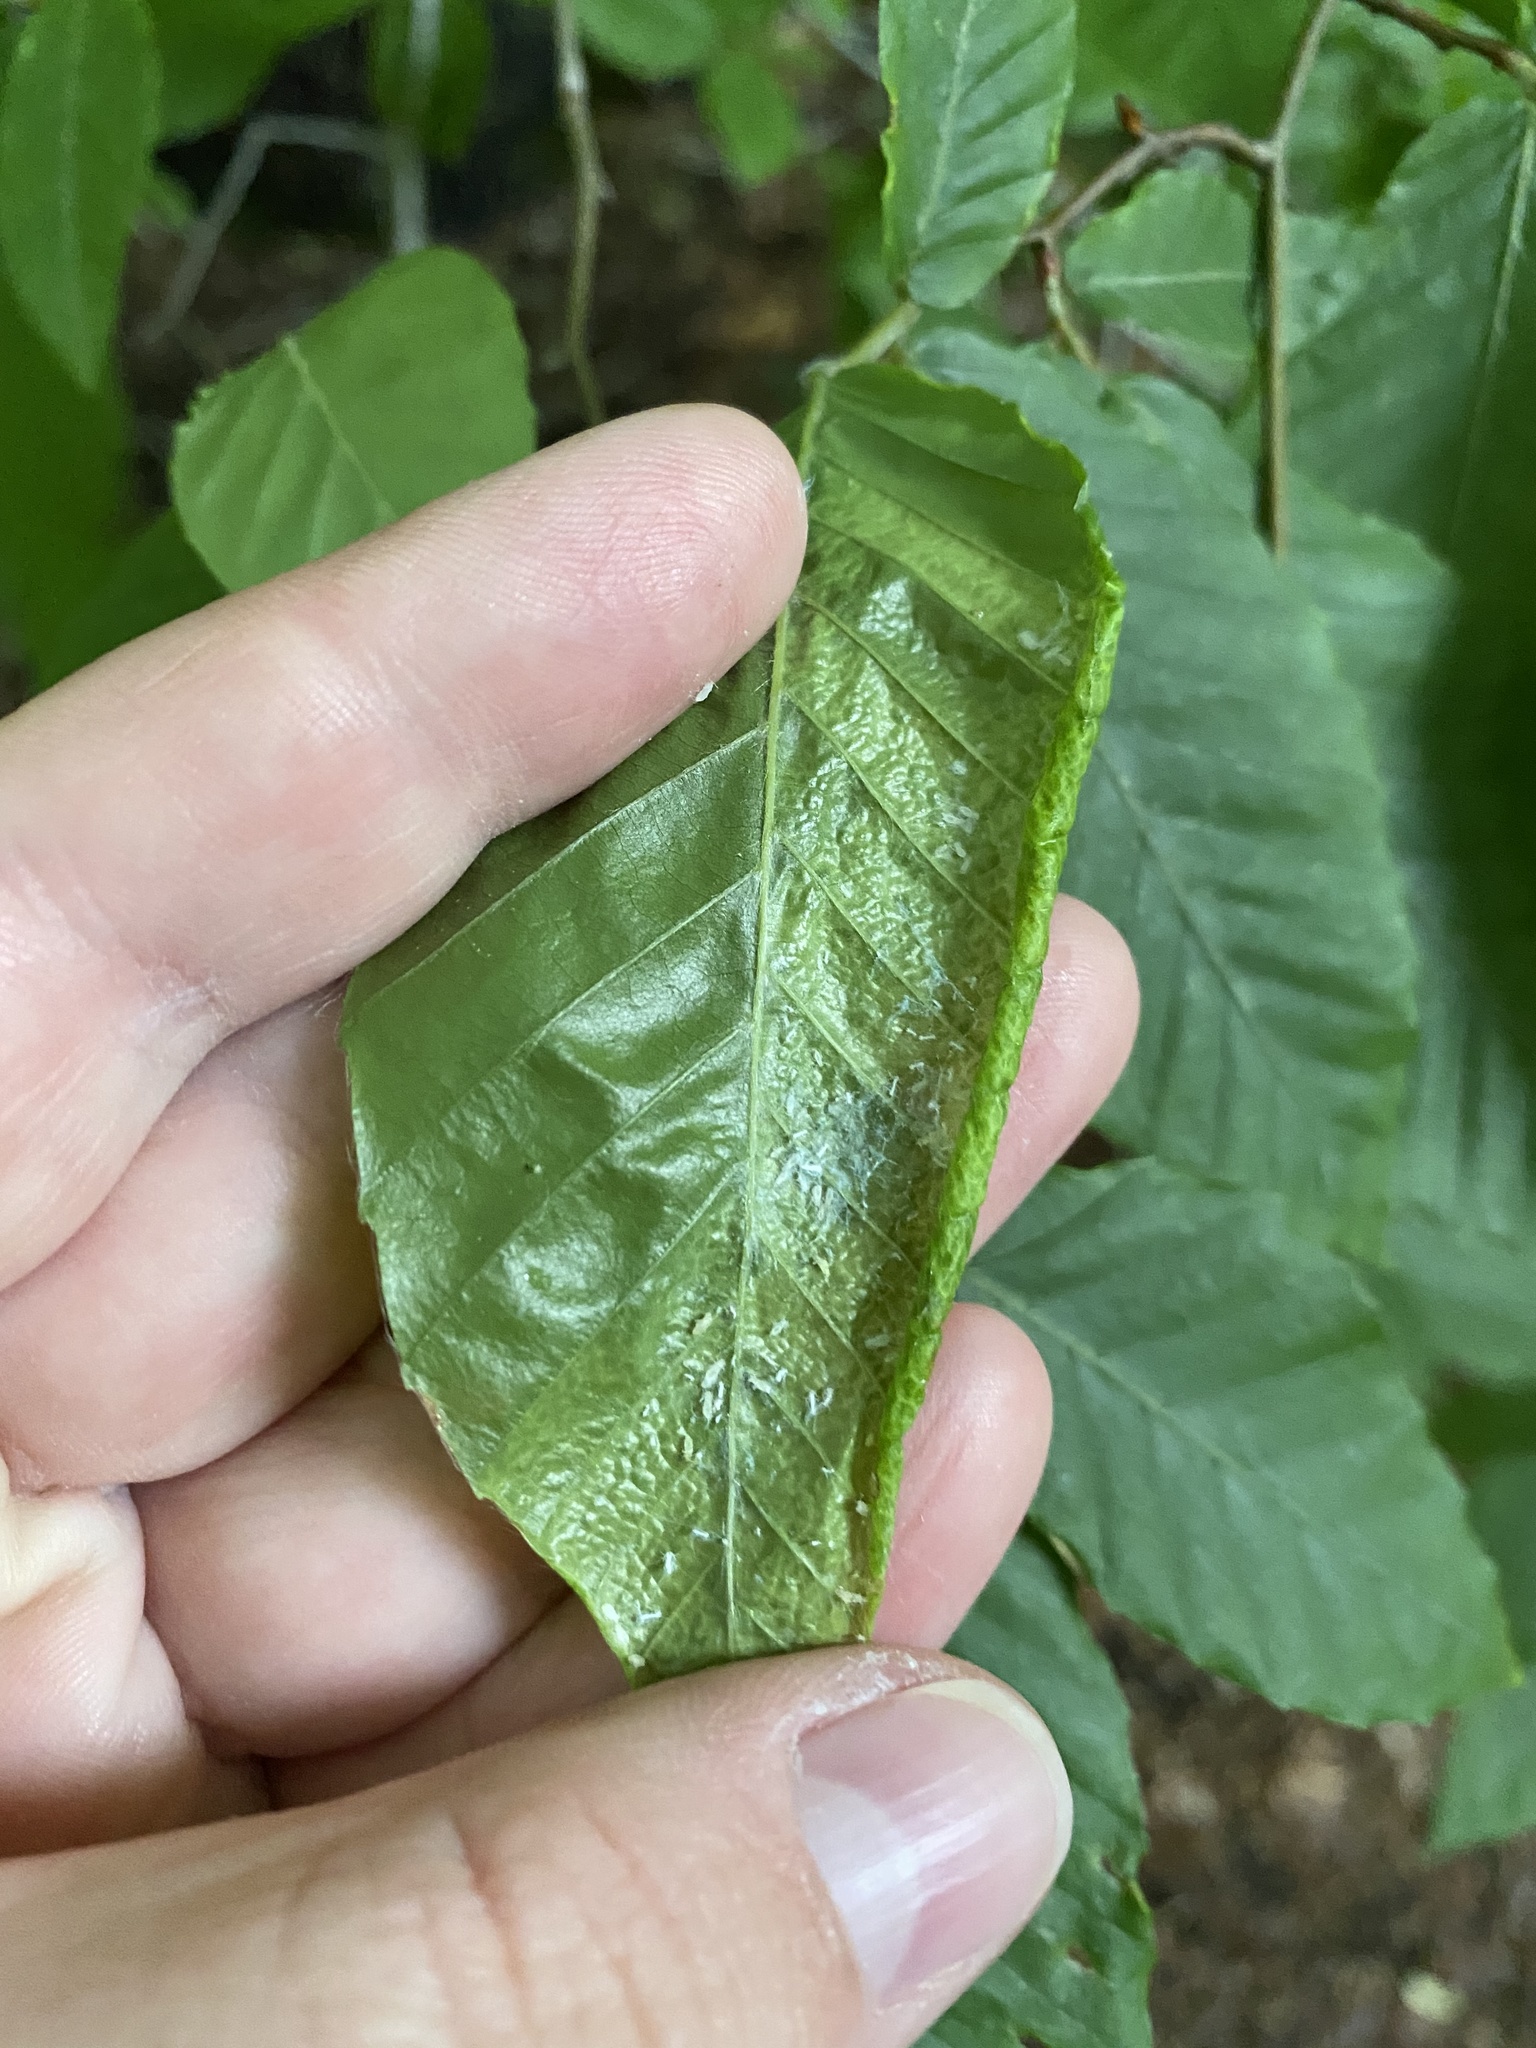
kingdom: Animalia
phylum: Nematoda
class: Chromadorea
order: Rhabditida
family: Anguinidae
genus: Litylenchus
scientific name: Litylenchus crenatae
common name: Beech leaf disease
